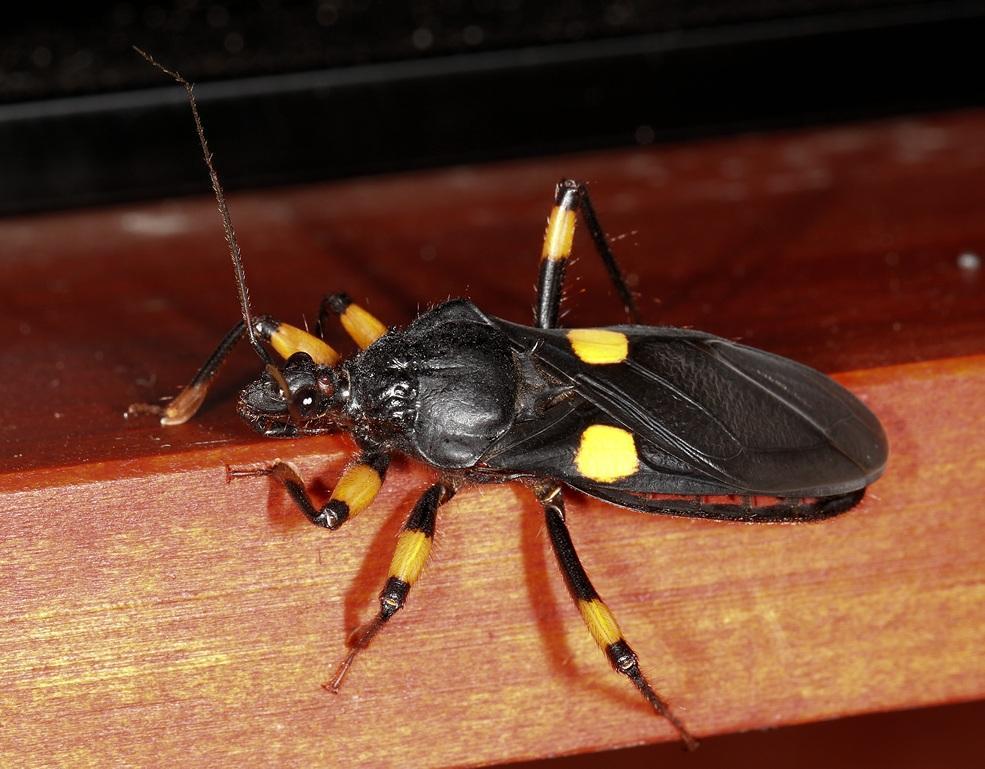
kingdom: Animalia
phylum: Arthropoda
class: Insecta
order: Hemiptera
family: Reduviidae
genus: Platymeris
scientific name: Platymeris guttatipennis
